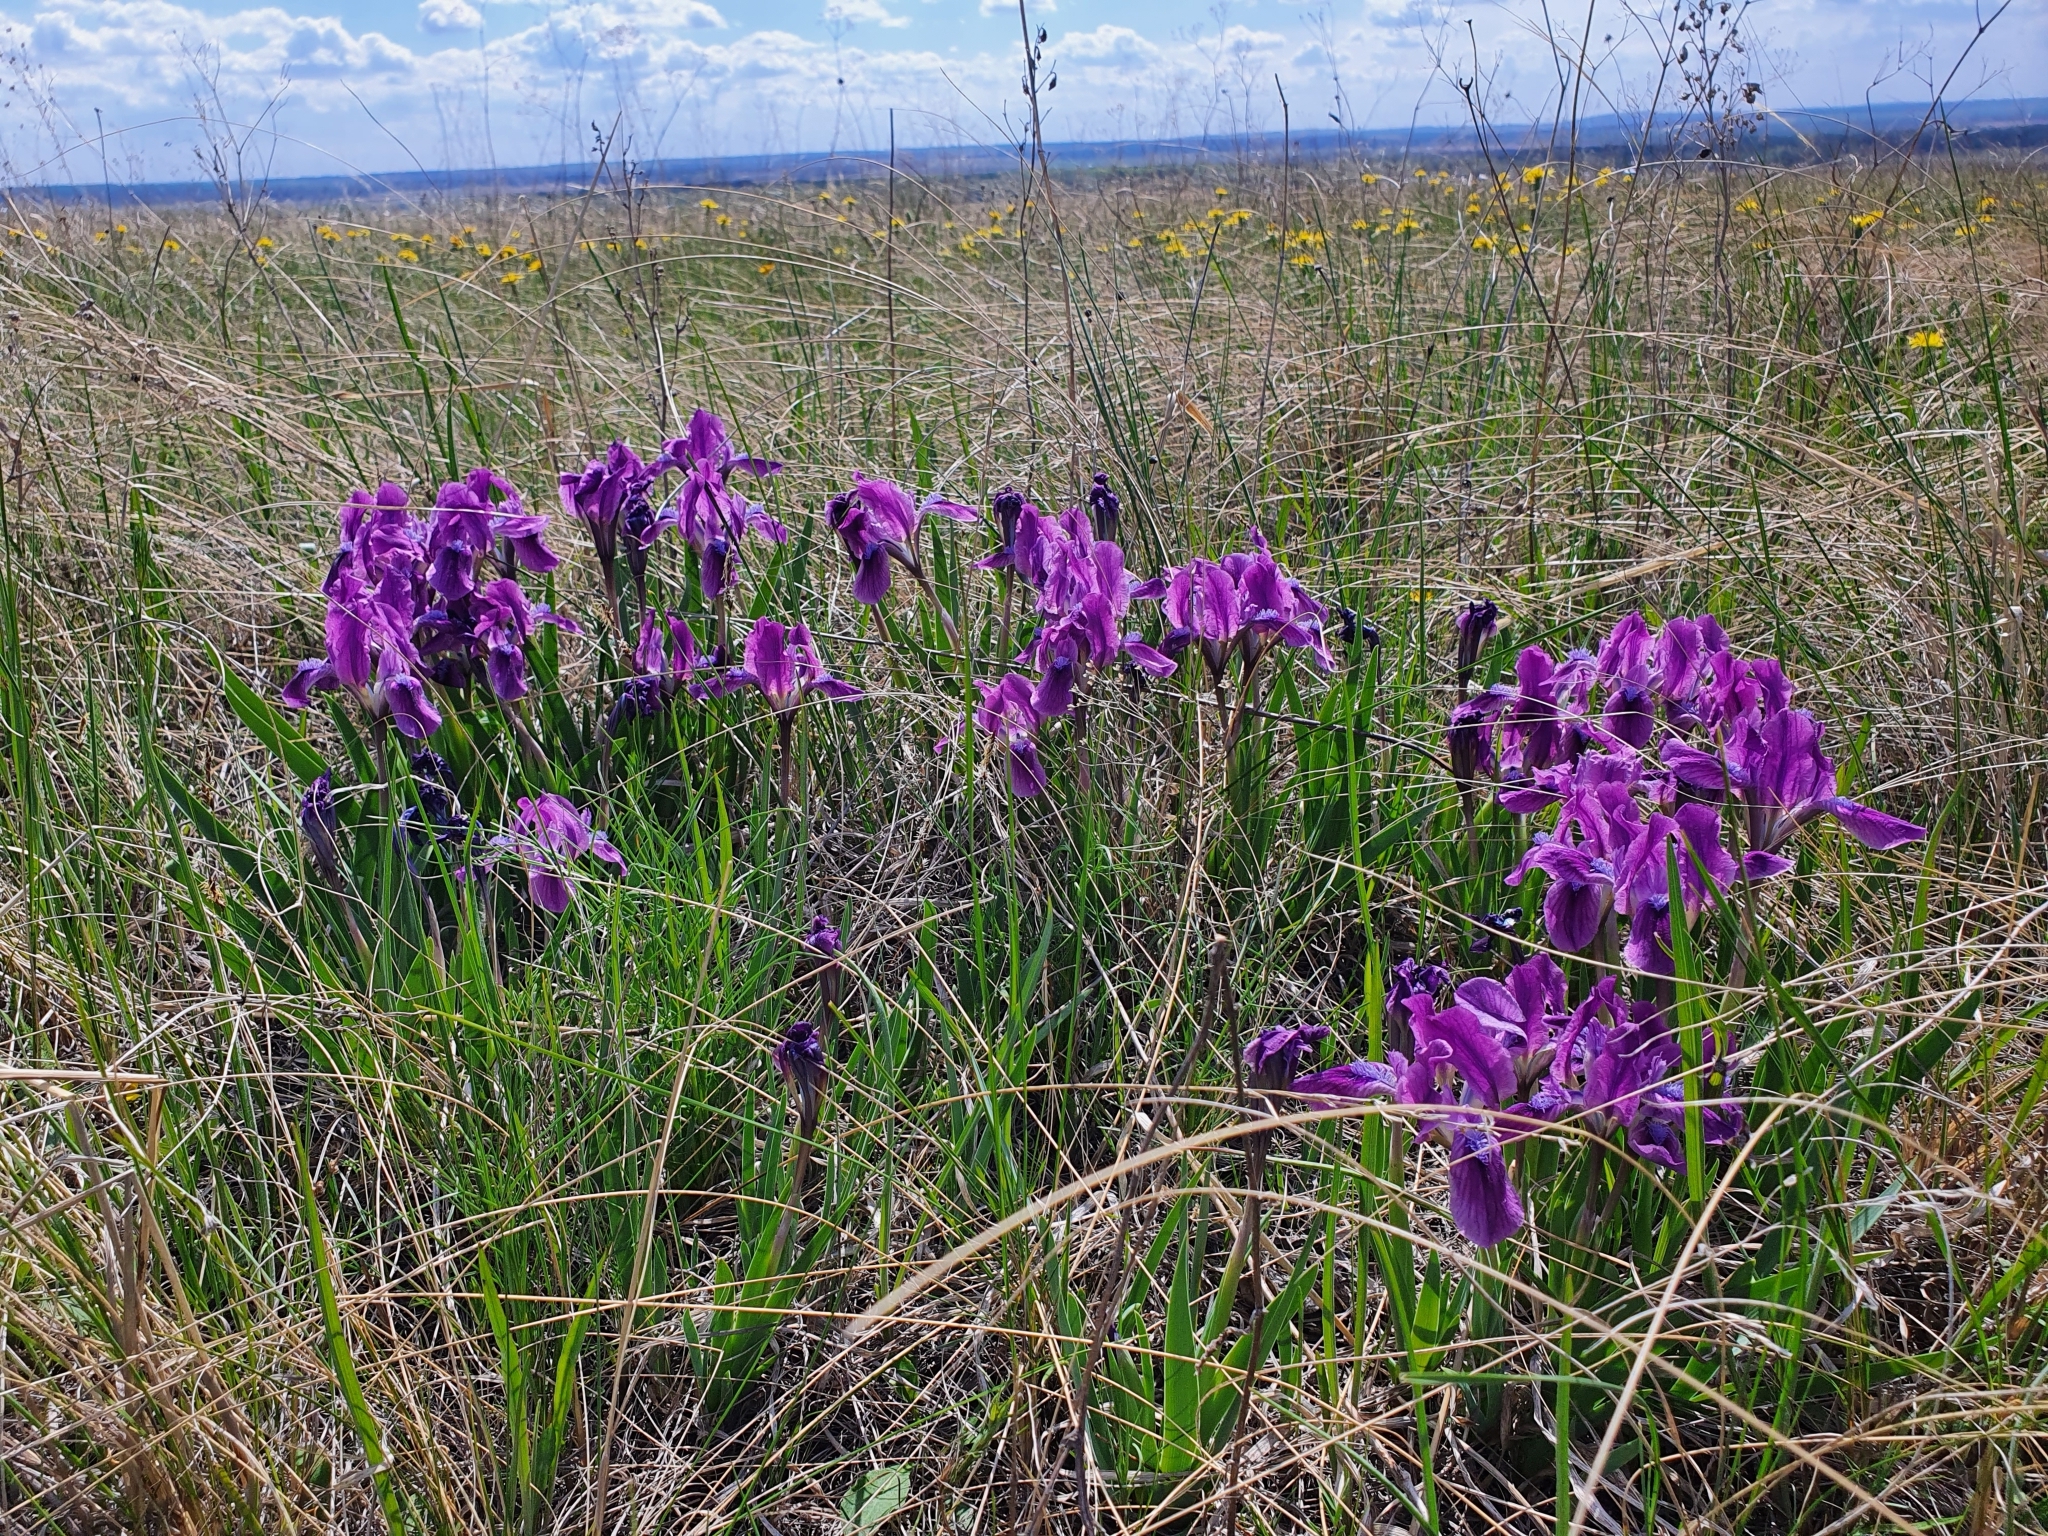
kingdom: Plantae
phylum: Tracheophyta
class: Liliopsida
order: Asparagales
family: Iridaceae
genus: Iris
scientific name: Iris pumila
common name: Dwarf iris
